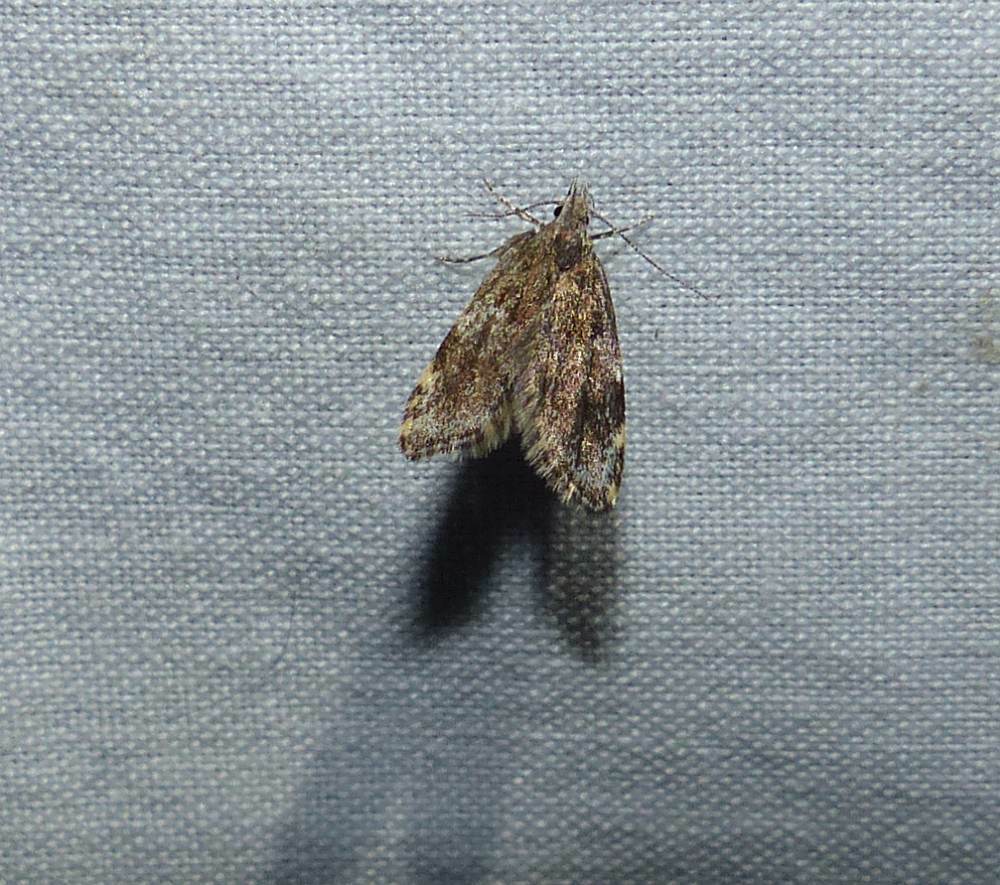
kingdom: Animalia
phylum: Arthropoda
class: Insecta
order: Lepidoptera
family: Oecophoridae
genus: Eido
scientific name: Eido trimaculella
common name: Three-spotted concealer
